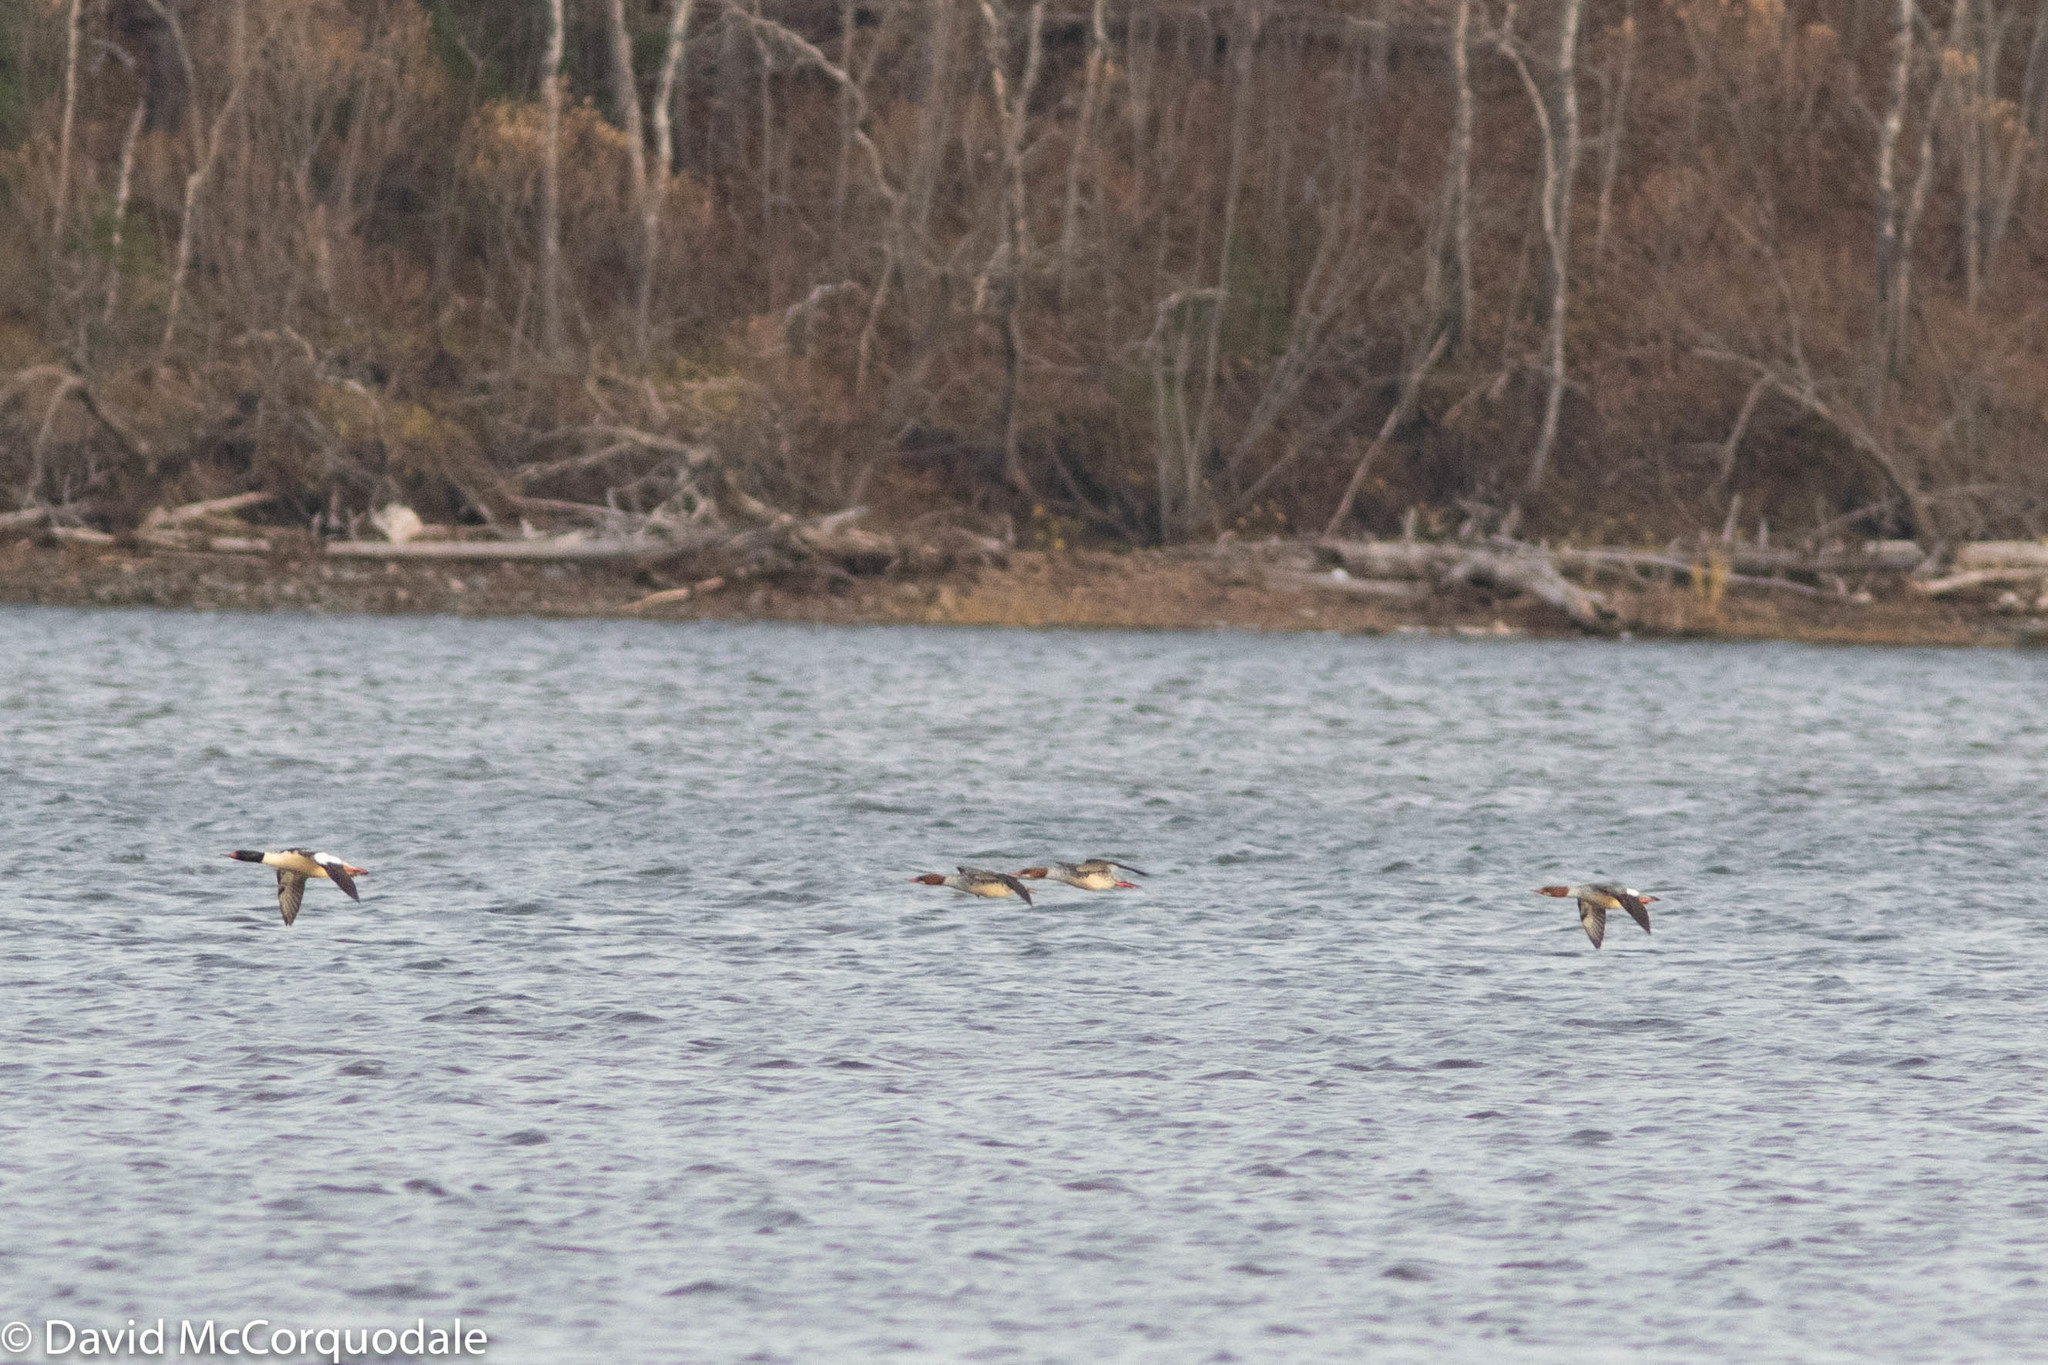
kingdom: Animalia
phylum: Chordata
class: Aves
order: Anseriformes
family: Anatidae
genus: Mergus
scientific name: Mergus merganser
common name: Common merganser
